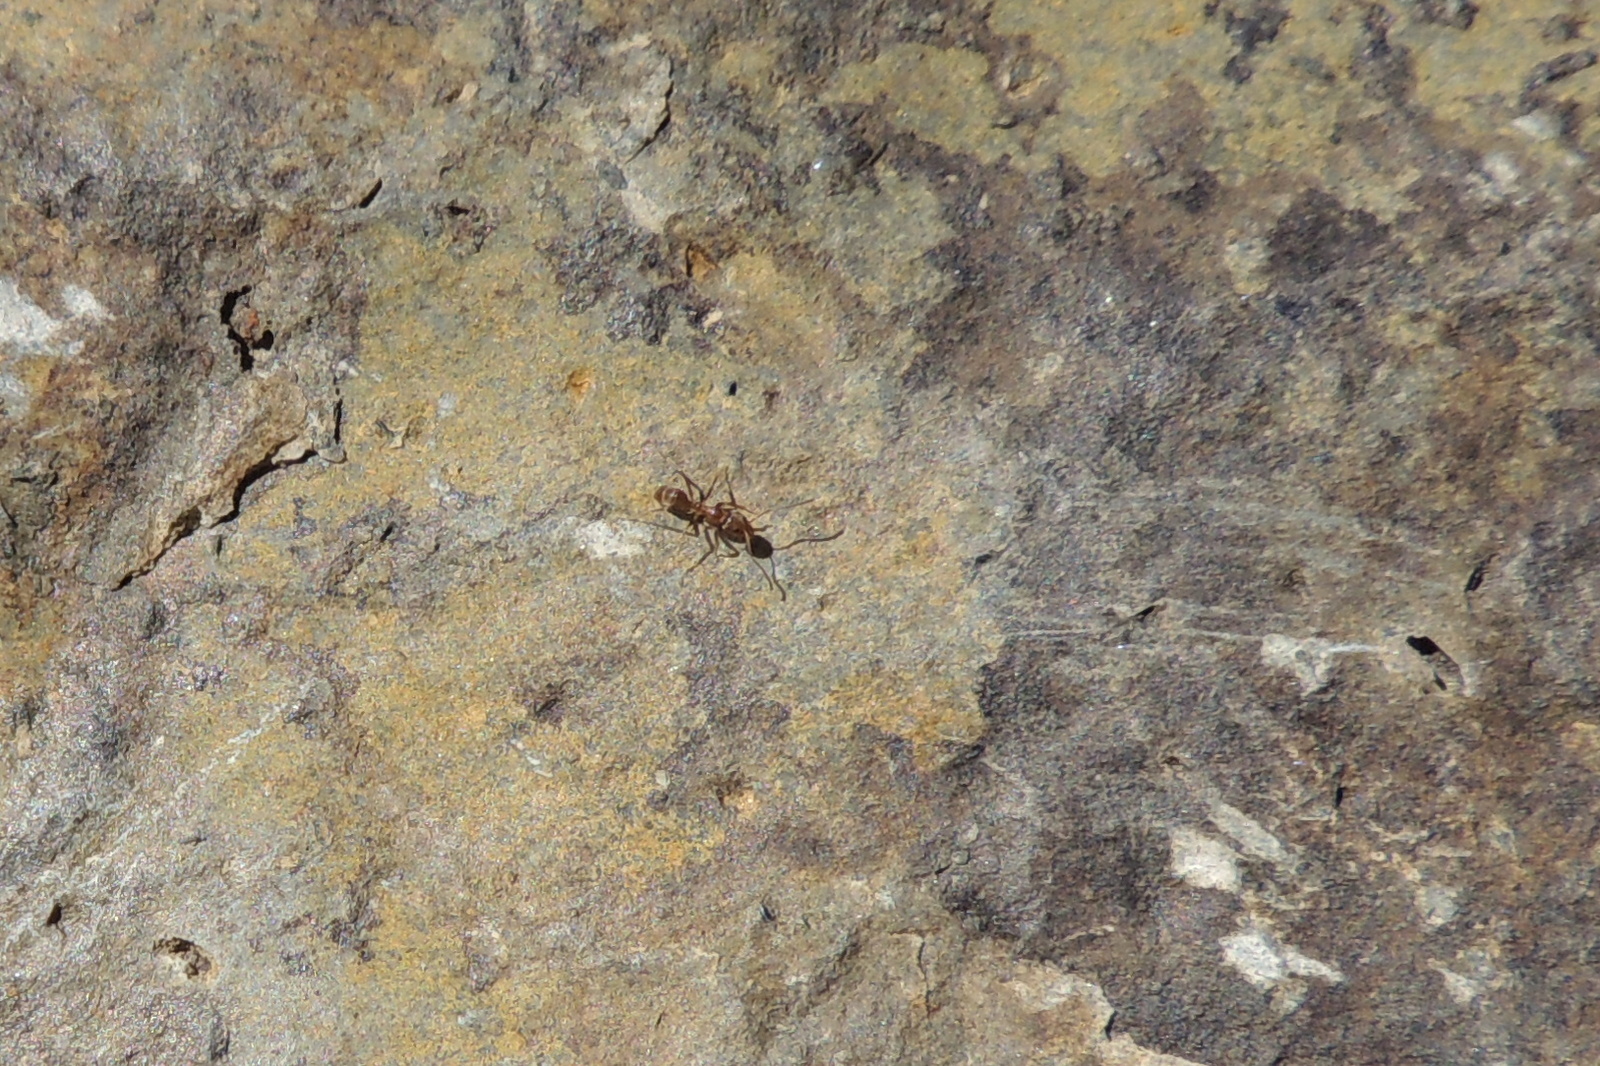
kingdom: Animalia
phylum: Arthropoda
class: Insecta
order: Hymenoptera
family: Formicidae
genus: Linepithema
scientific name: Linepithema humile
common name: Argentine ant
